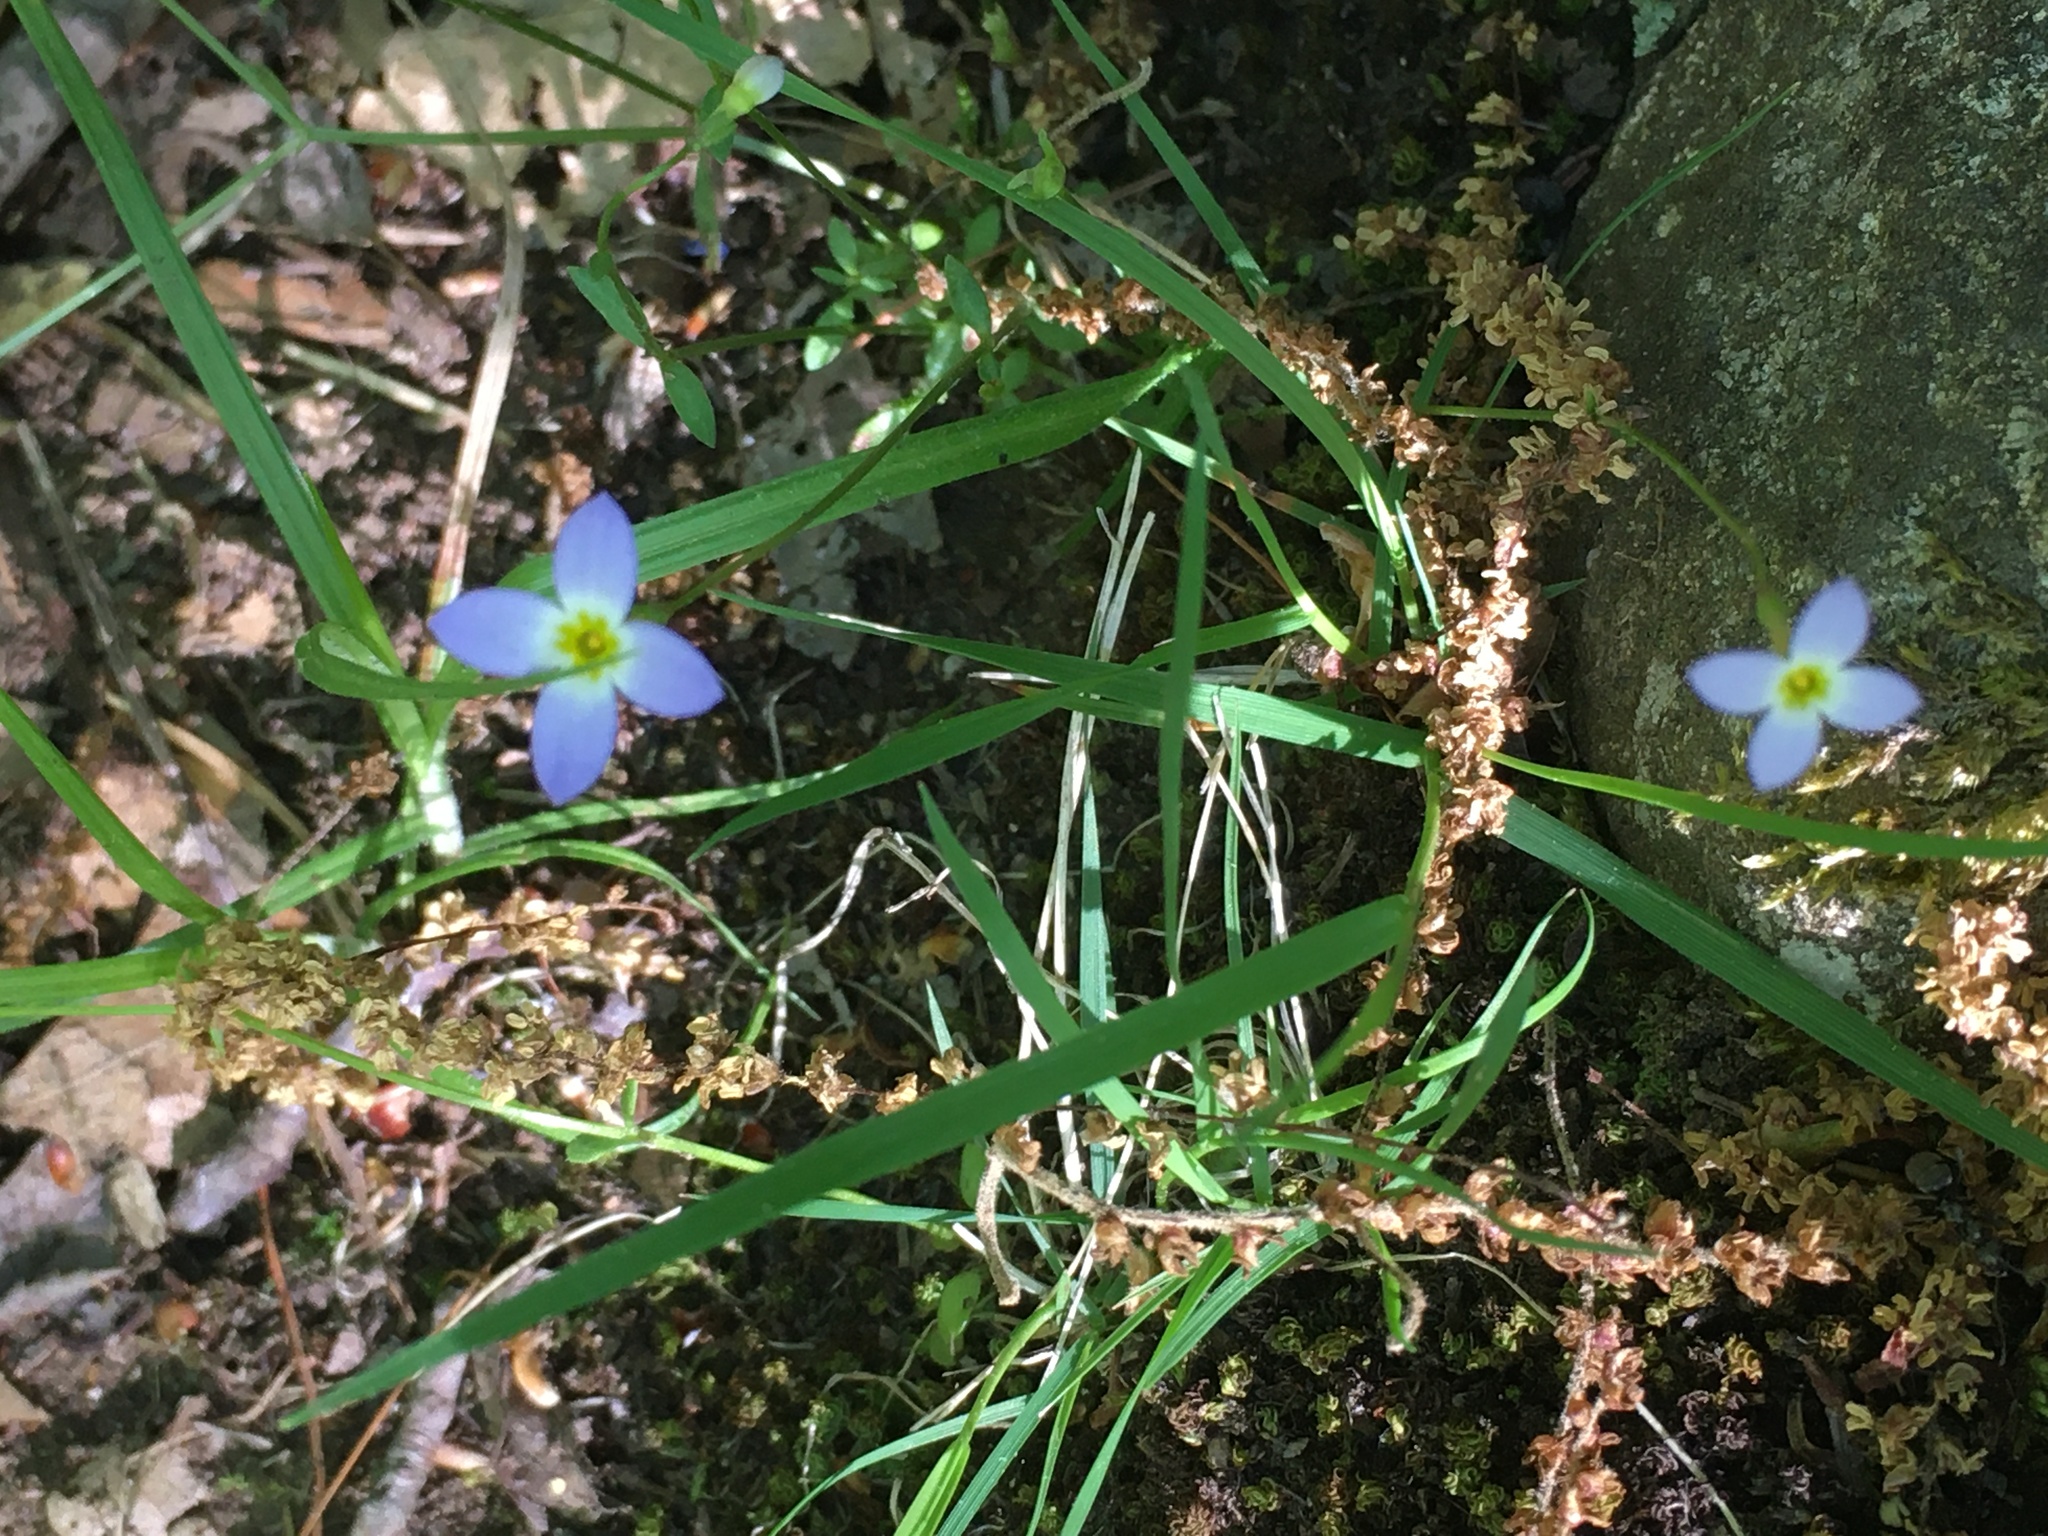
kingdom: Plantae
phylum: Tracheophyta
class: Magnoliopsida
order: Gentianales
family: Rubiaceae
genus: Houstonia
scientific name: Houstonia caerulea
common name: Bluets
